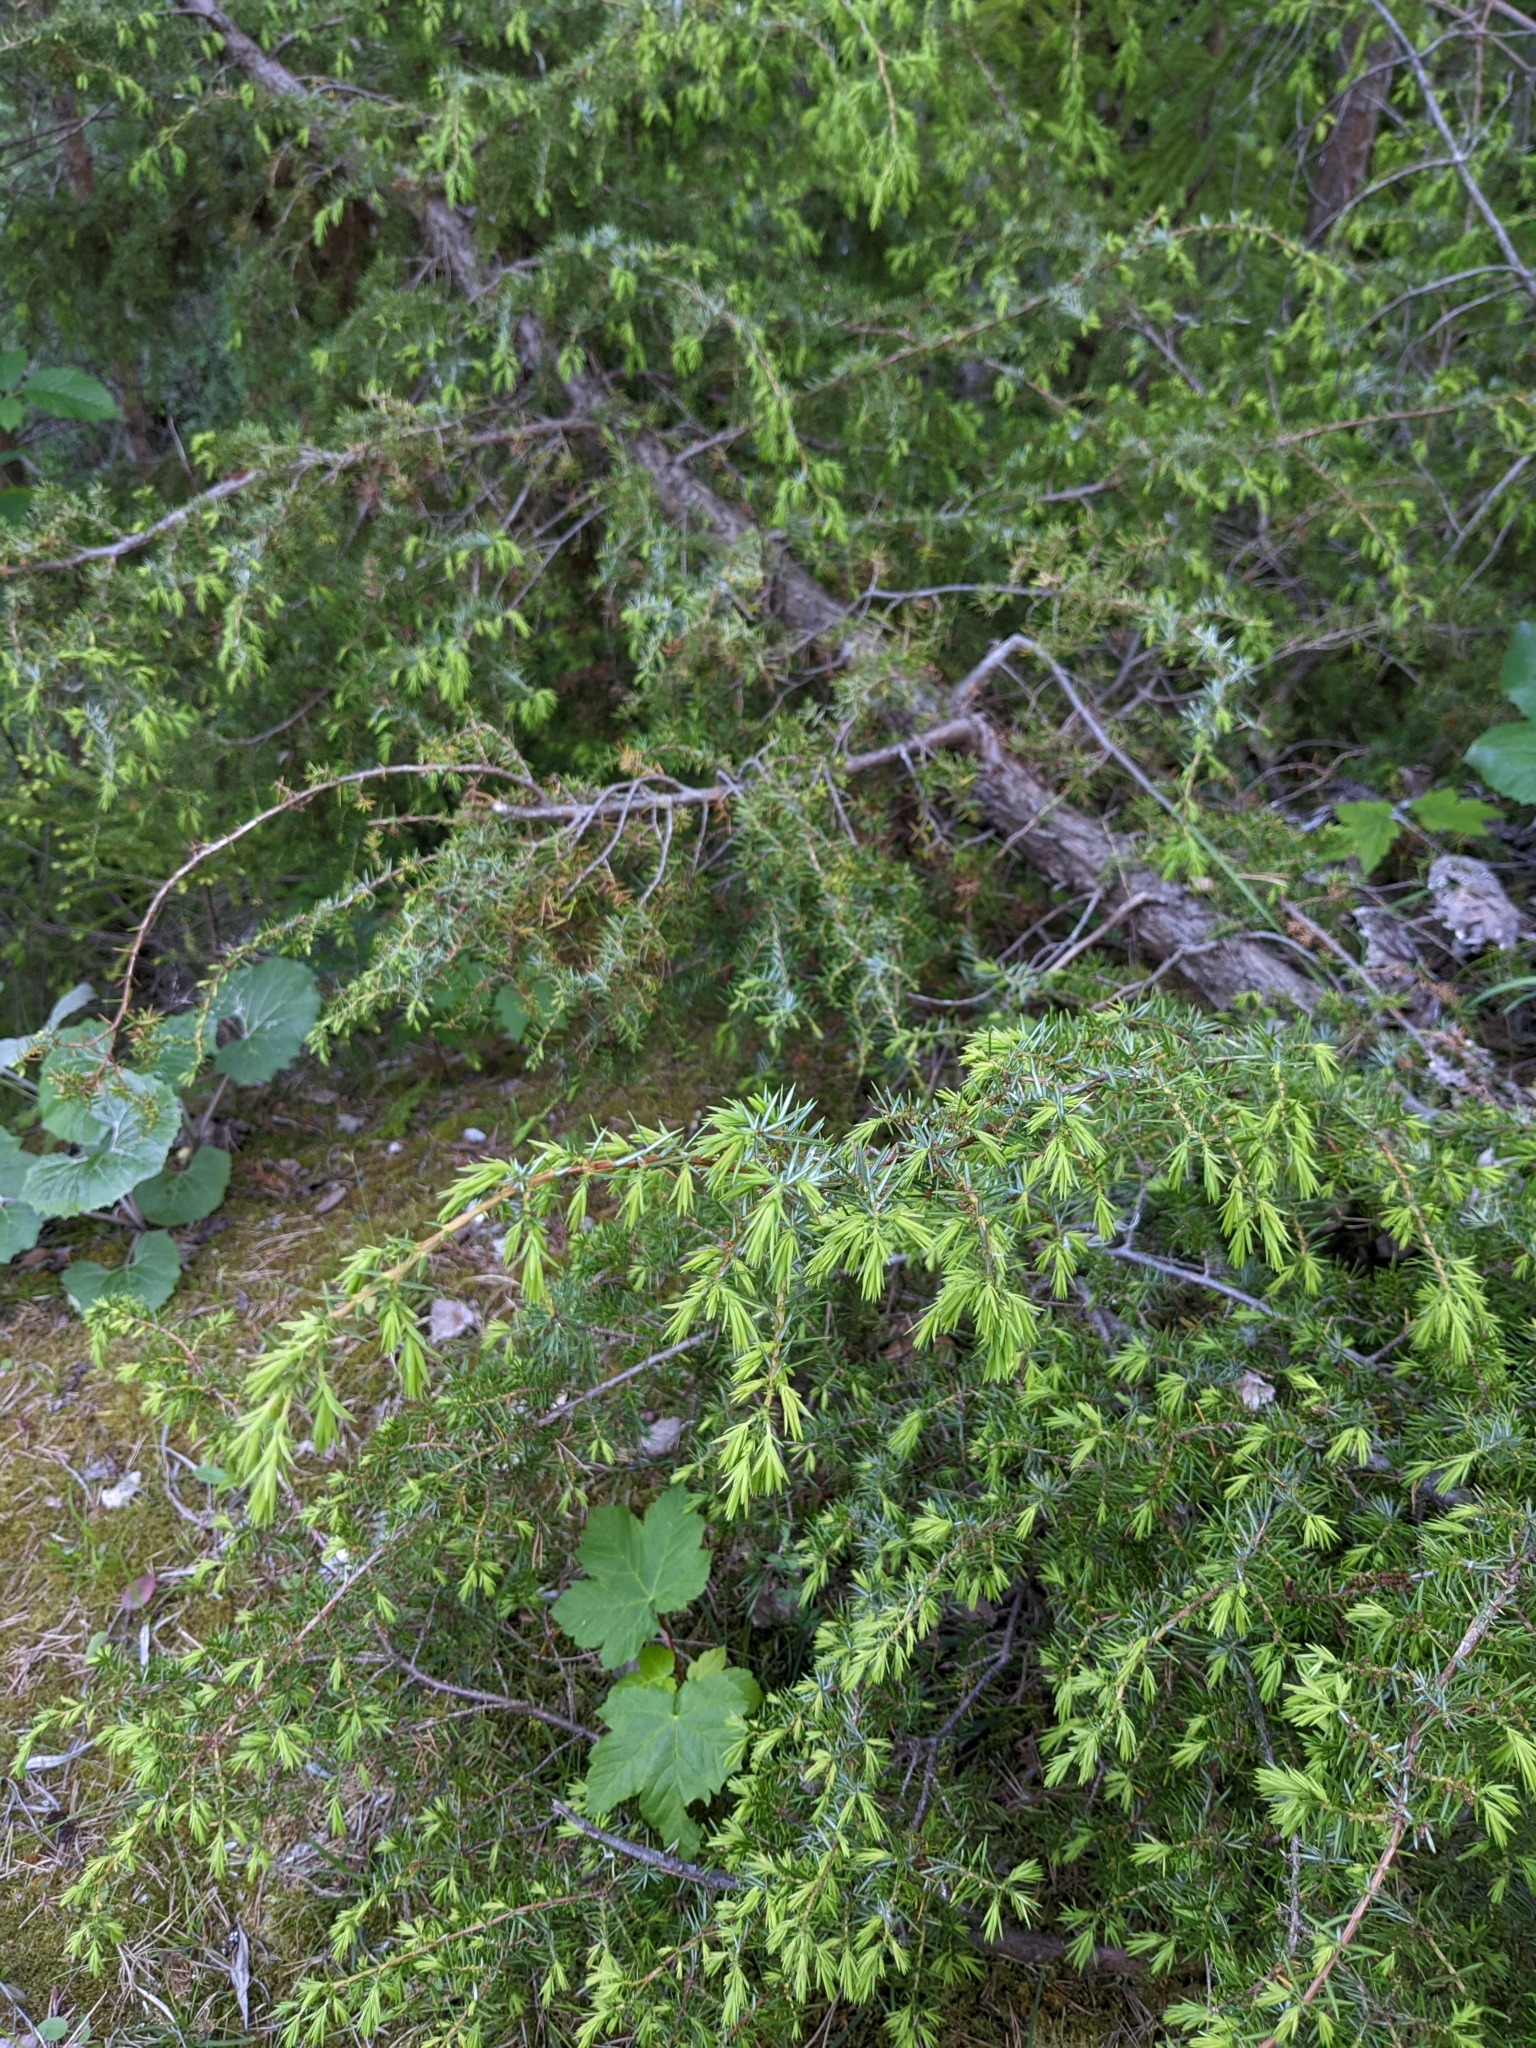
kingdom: Plantae
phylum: Tracheophyta
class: Pinopsida
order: Pinales
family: Cupressaceae
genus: Juniperus
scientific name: Juniperus communis
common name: Common juniper
